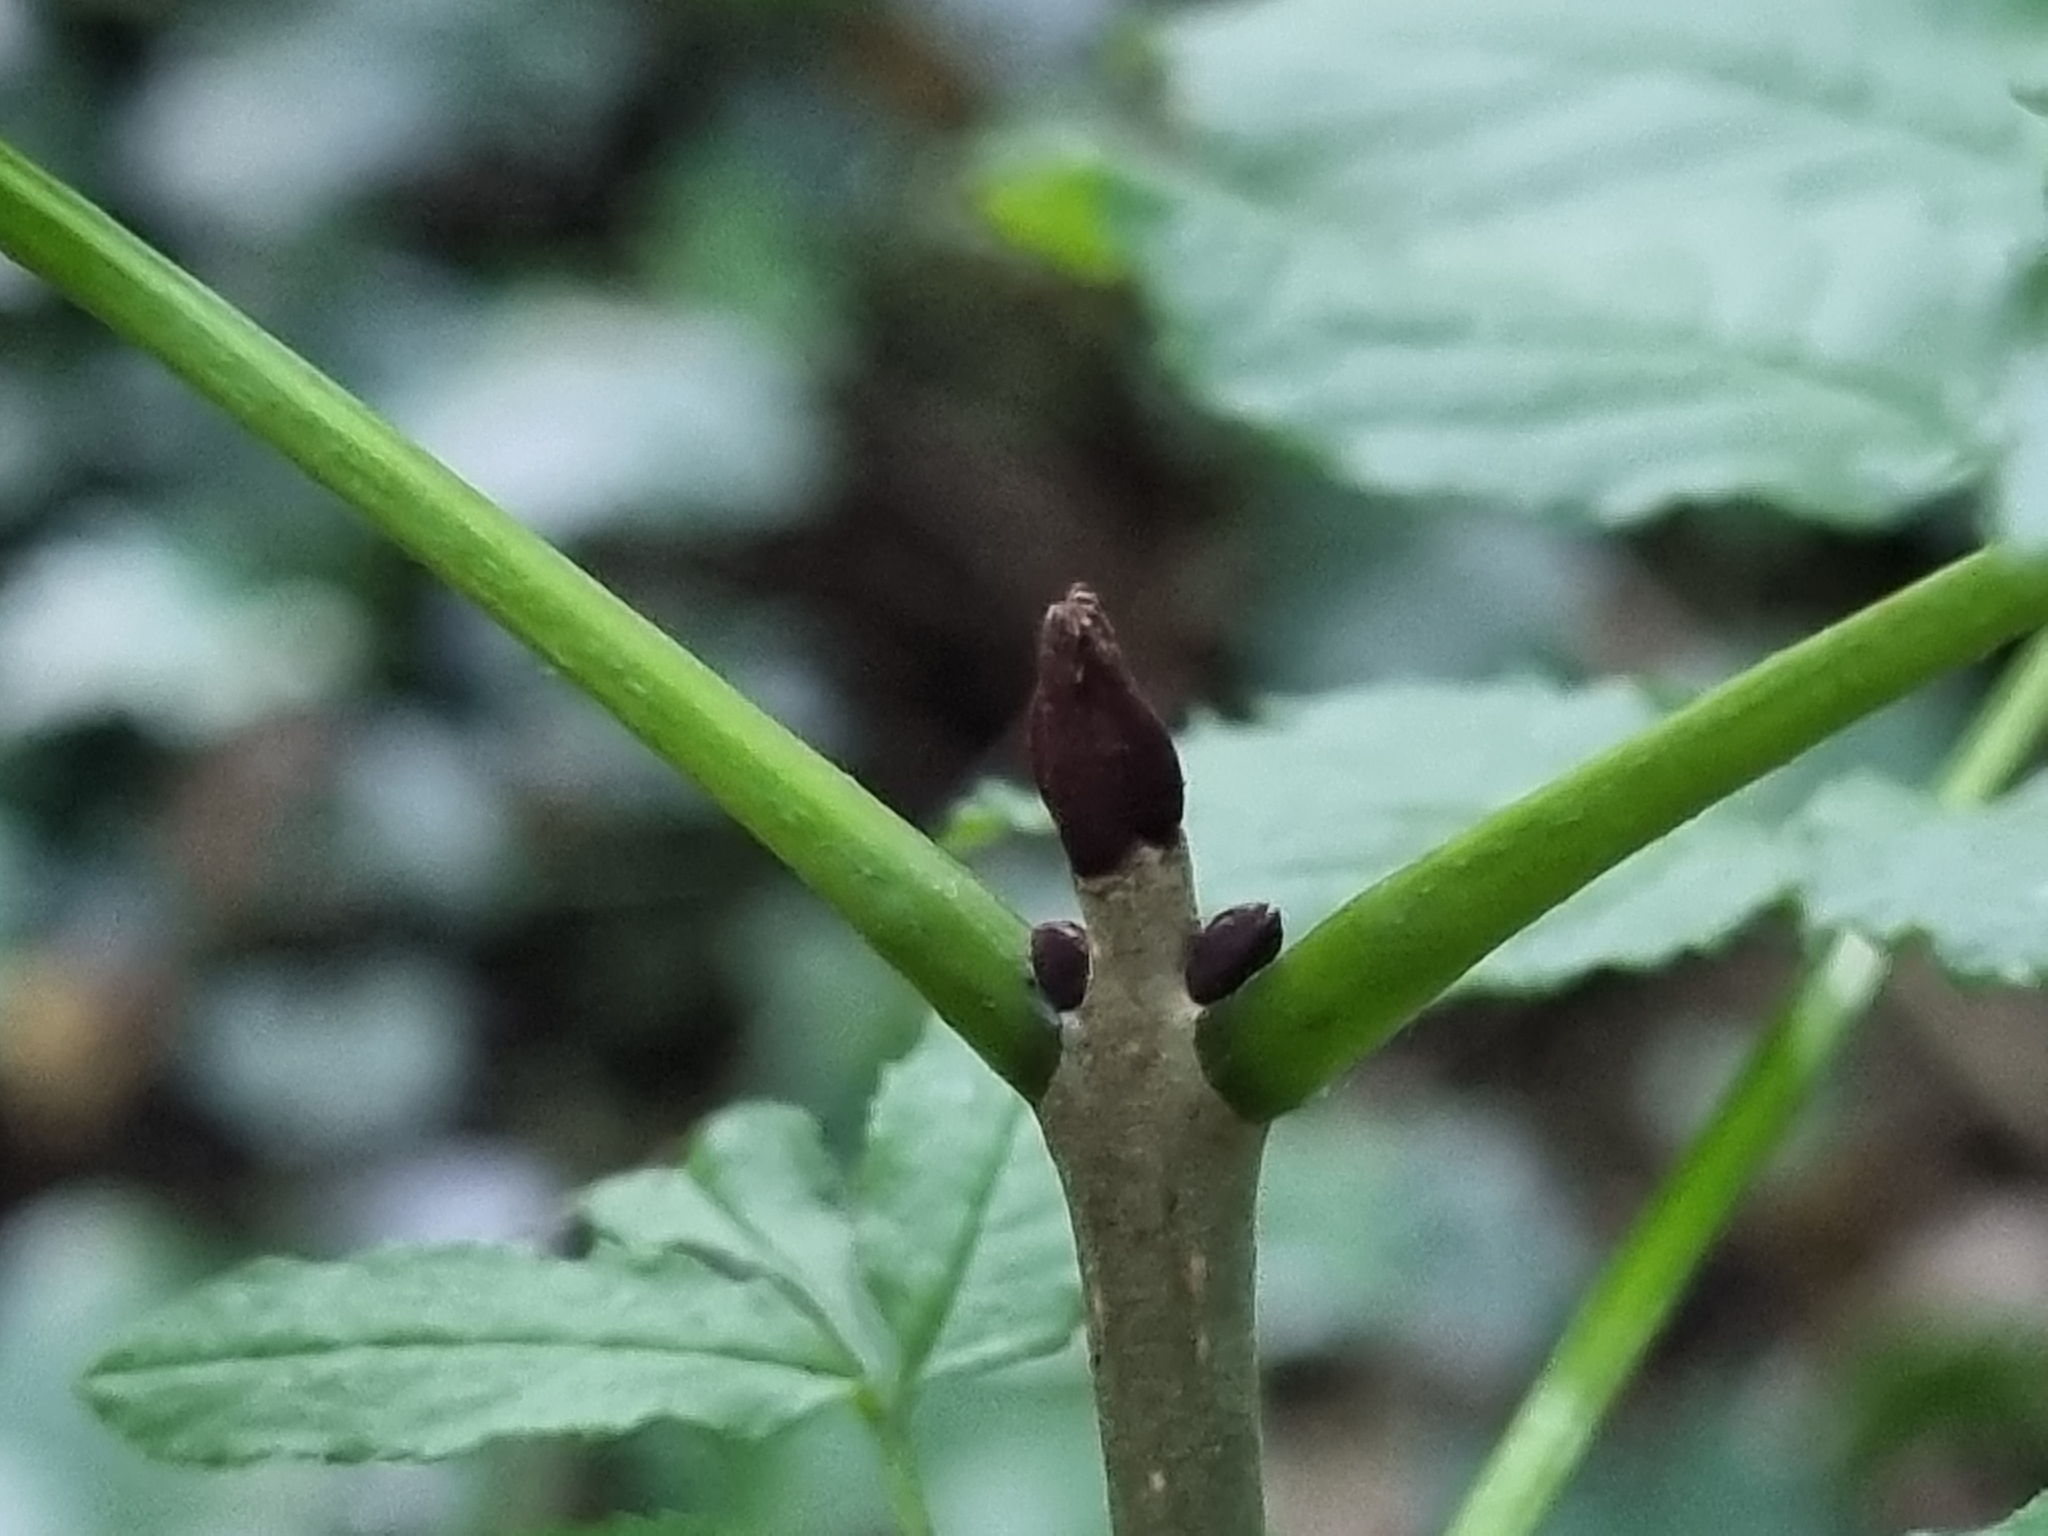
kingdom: Plantae
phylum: Tracheophyta
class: Magnoliopsida
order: Lamiales
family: Oleaceae
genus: Fraxinus
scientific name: Fraxinus excelsior
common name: European ash
